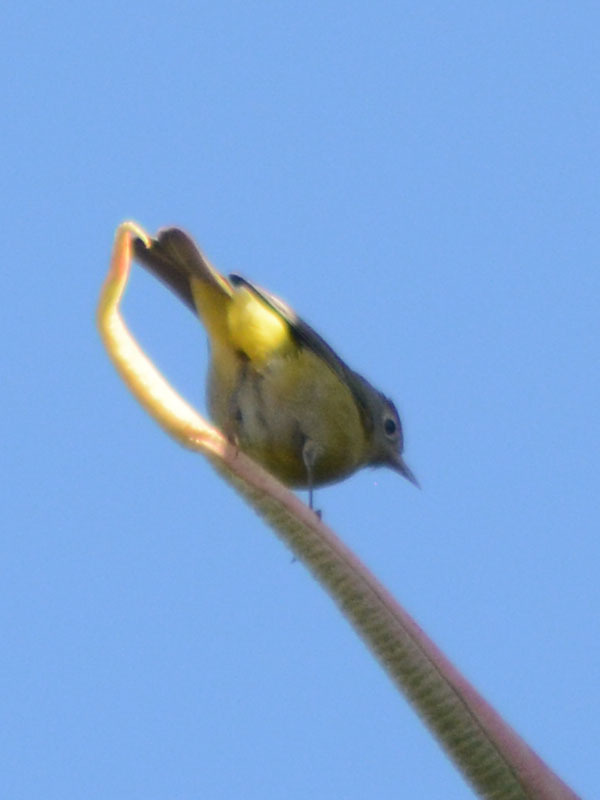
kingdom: Animalia
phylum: Chordata
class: Aves
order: Passeriformes
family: Parulidae
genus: Leiothlypis
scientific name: Leiothlypis ruficapilla
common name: Nashville warbler
